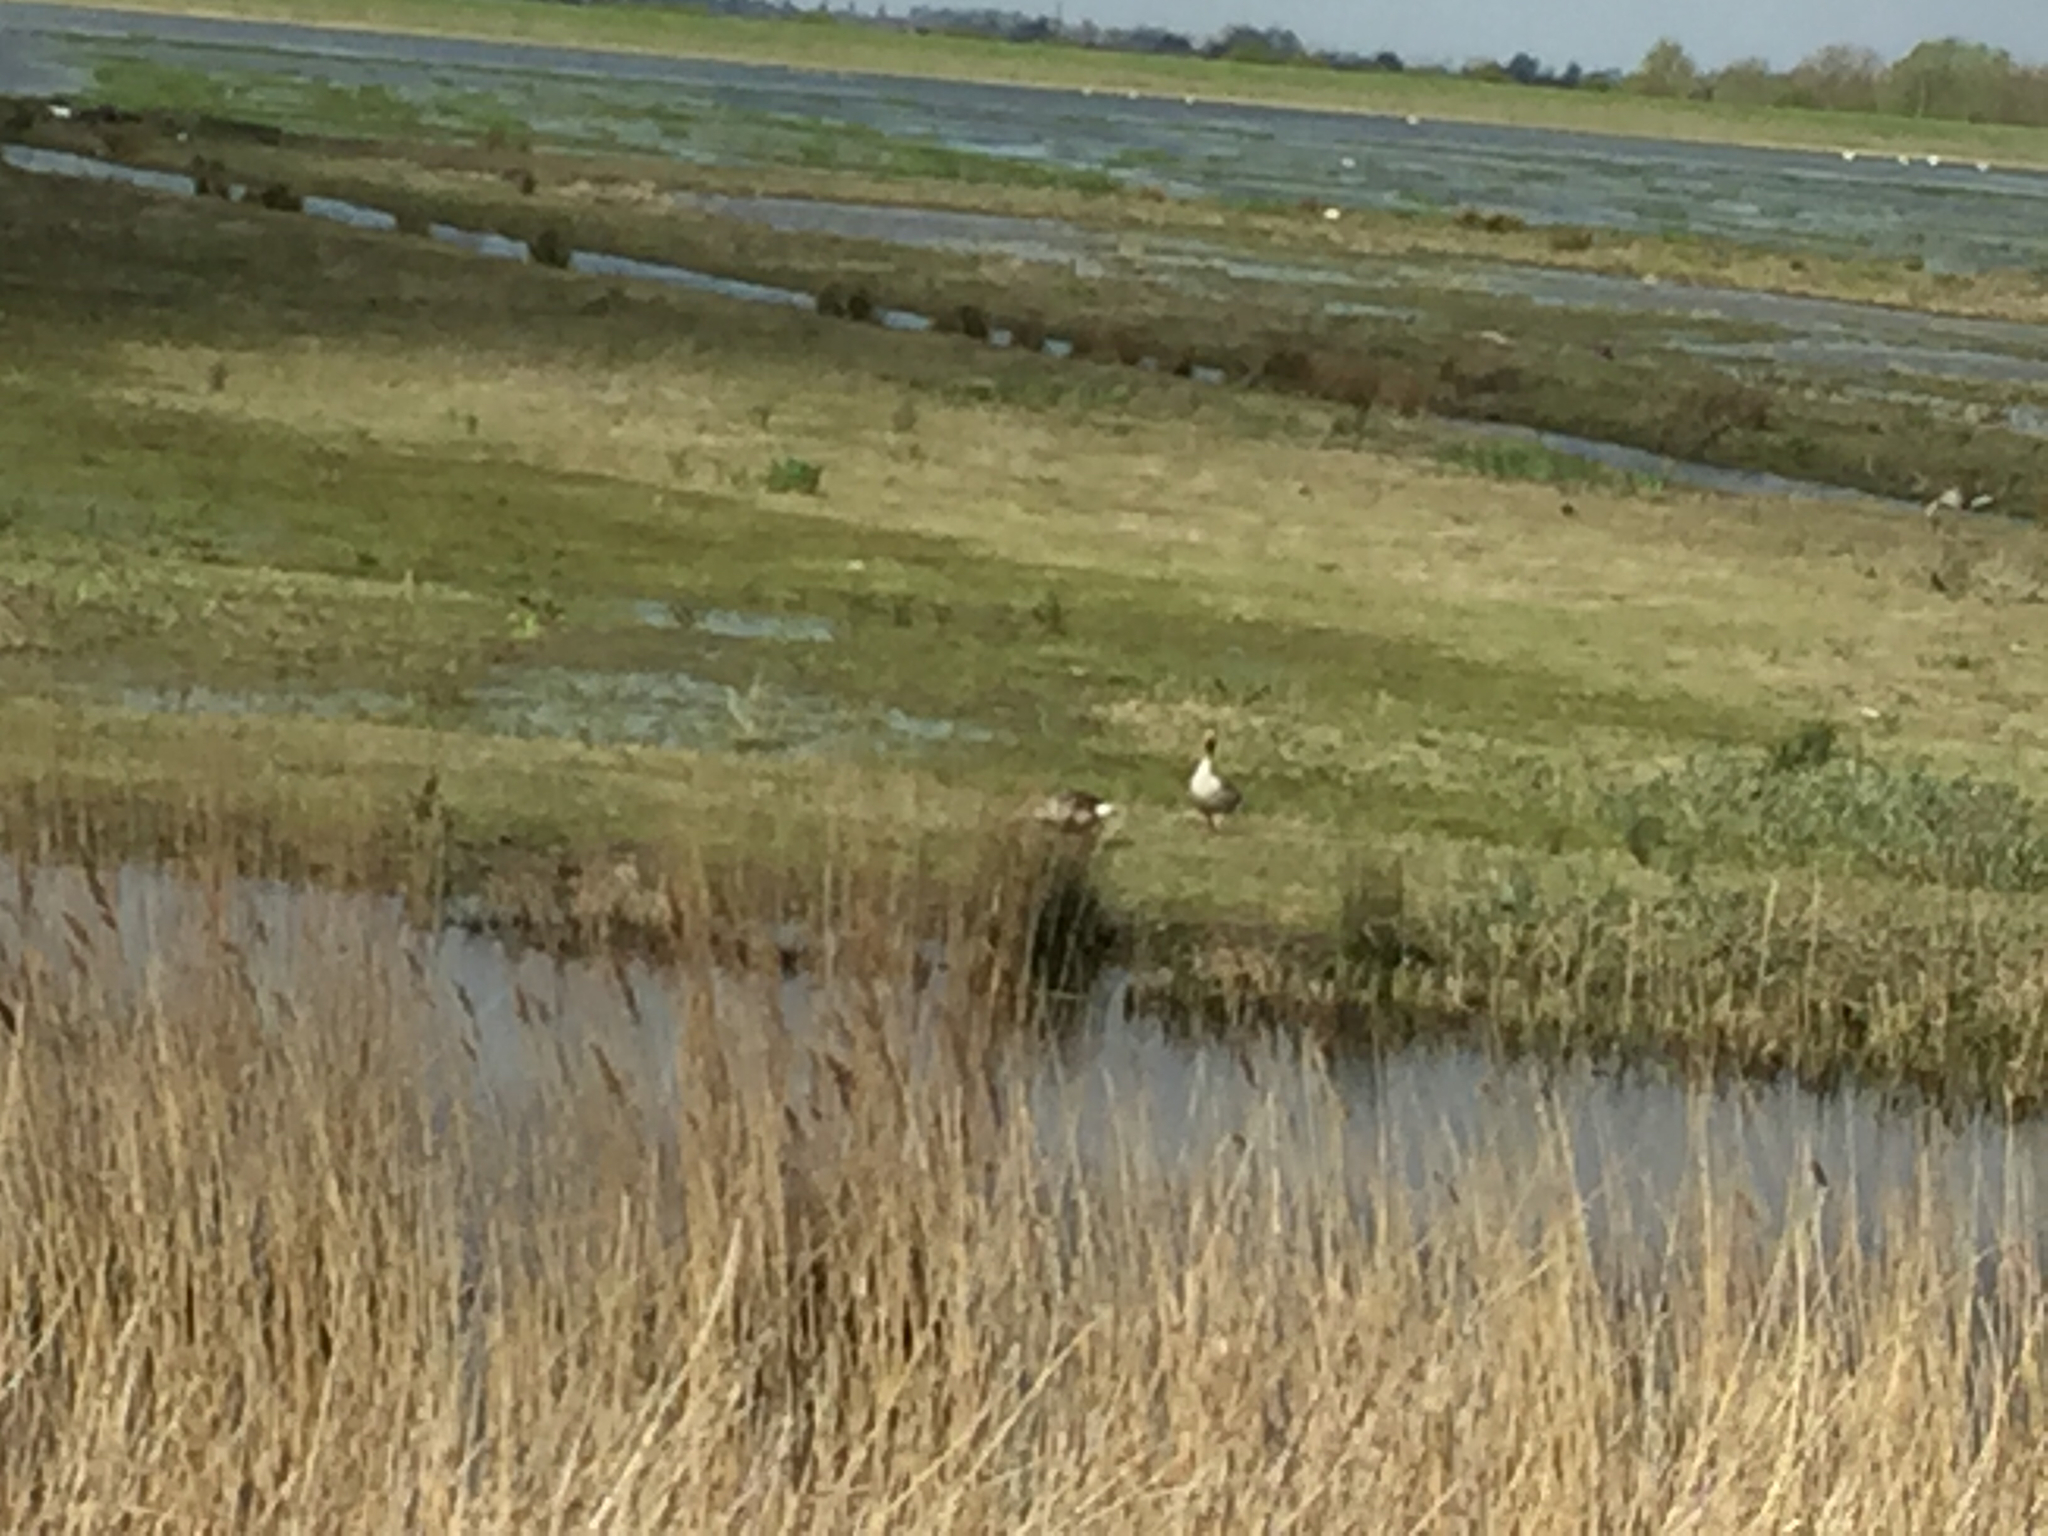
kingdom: Animalia
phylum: Chordata
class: Aves
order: Anseriformes
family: Anatidae
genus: Anser
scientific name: Anser anser
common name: Greylag goose
